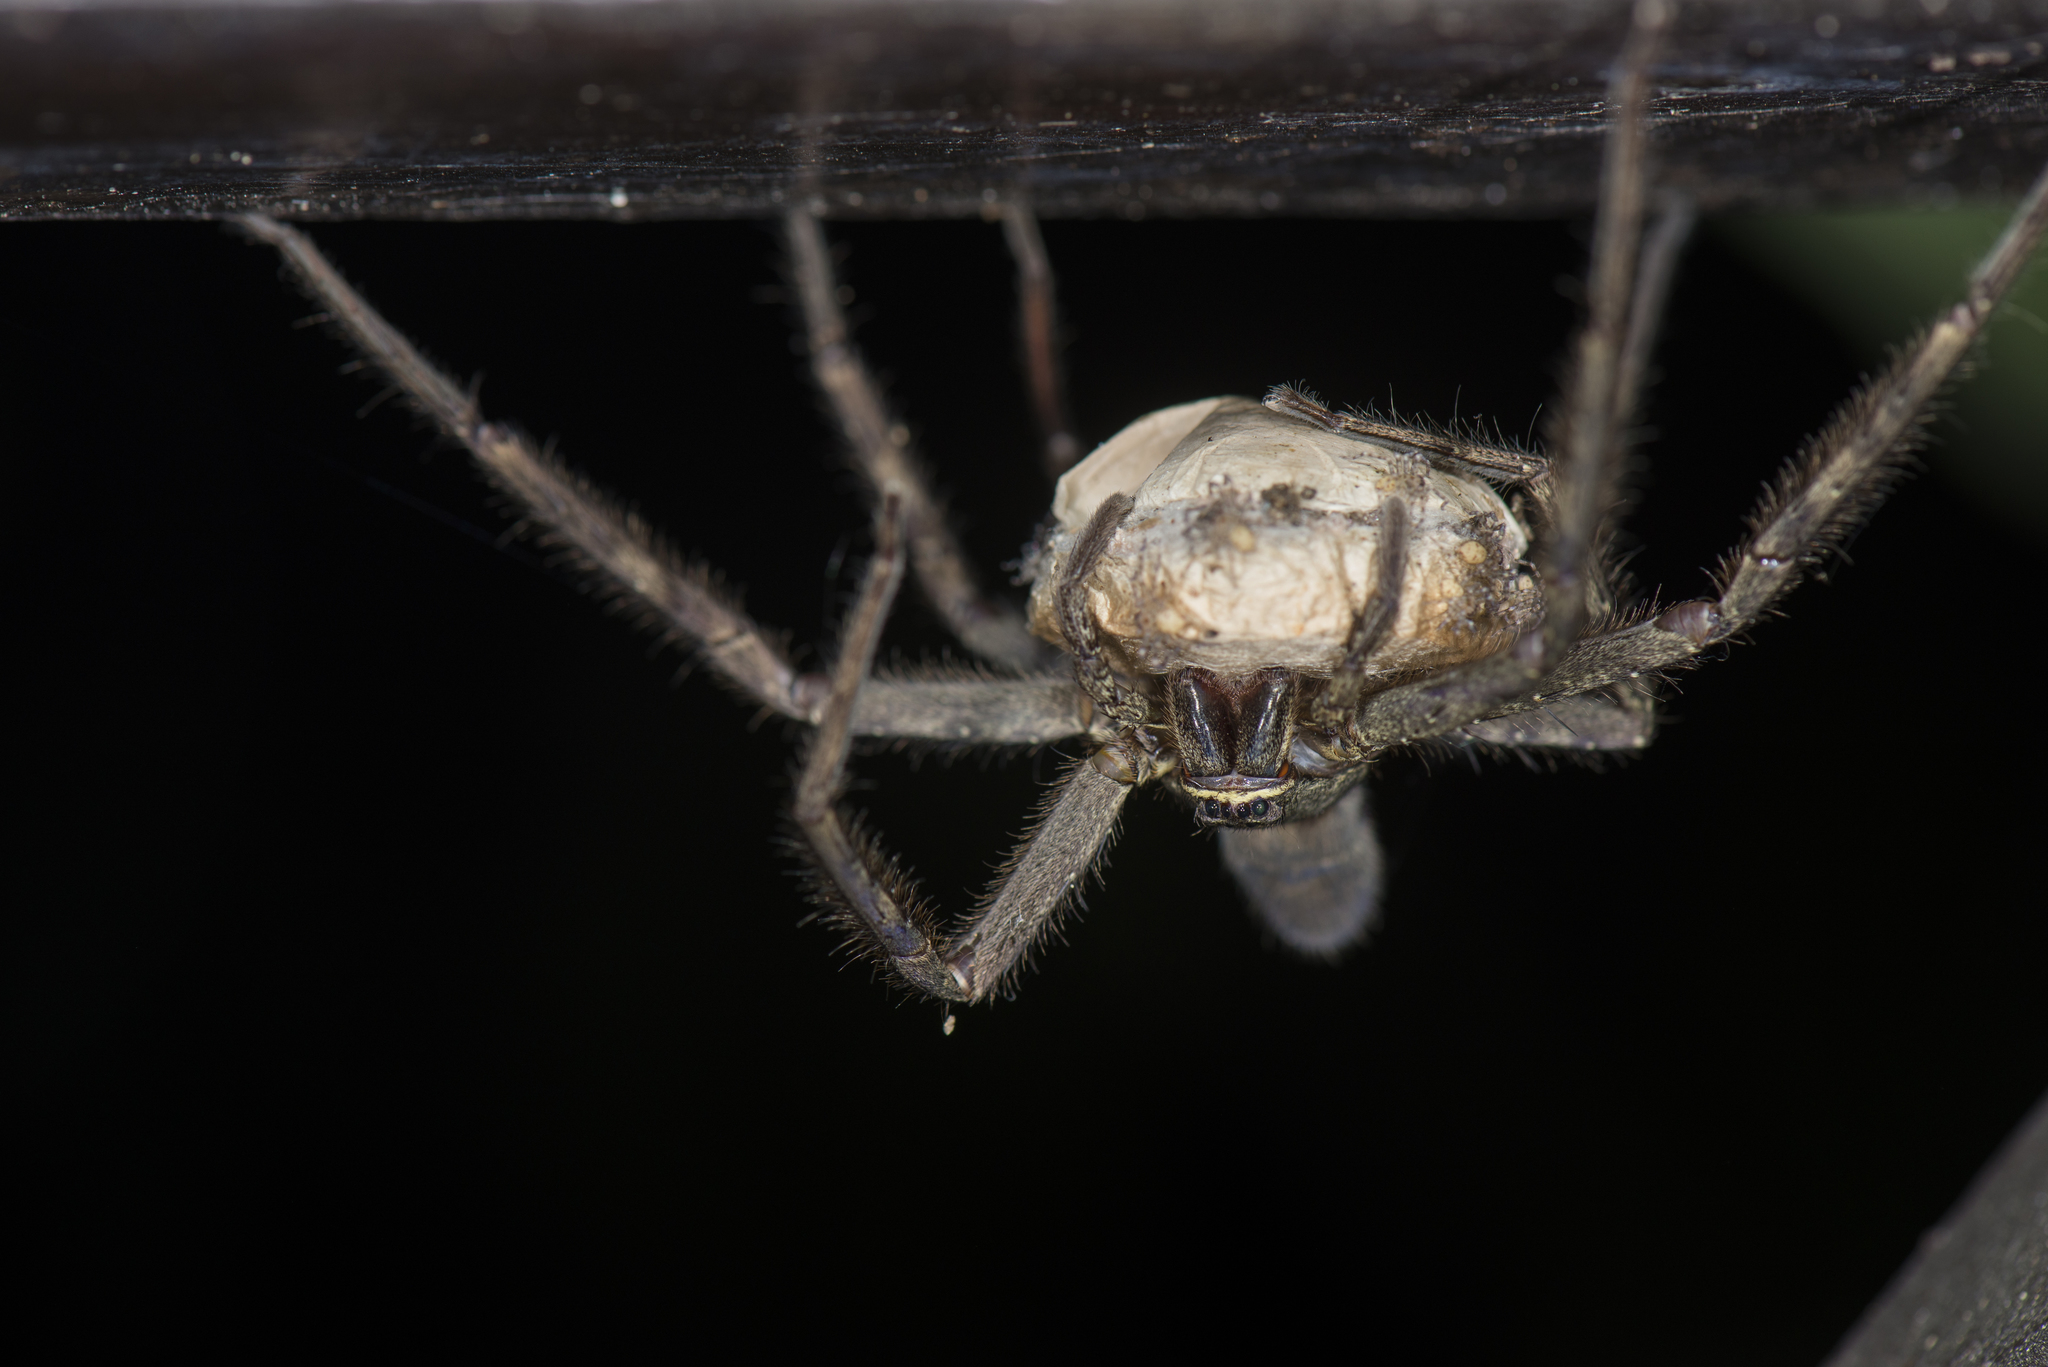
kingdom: Animalia
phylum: Arthropoda
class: Arachnida
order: Araneae
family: Sparassidae
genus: Heteropoda
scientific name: Heteropoda venatoria
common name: Huntsman spider
